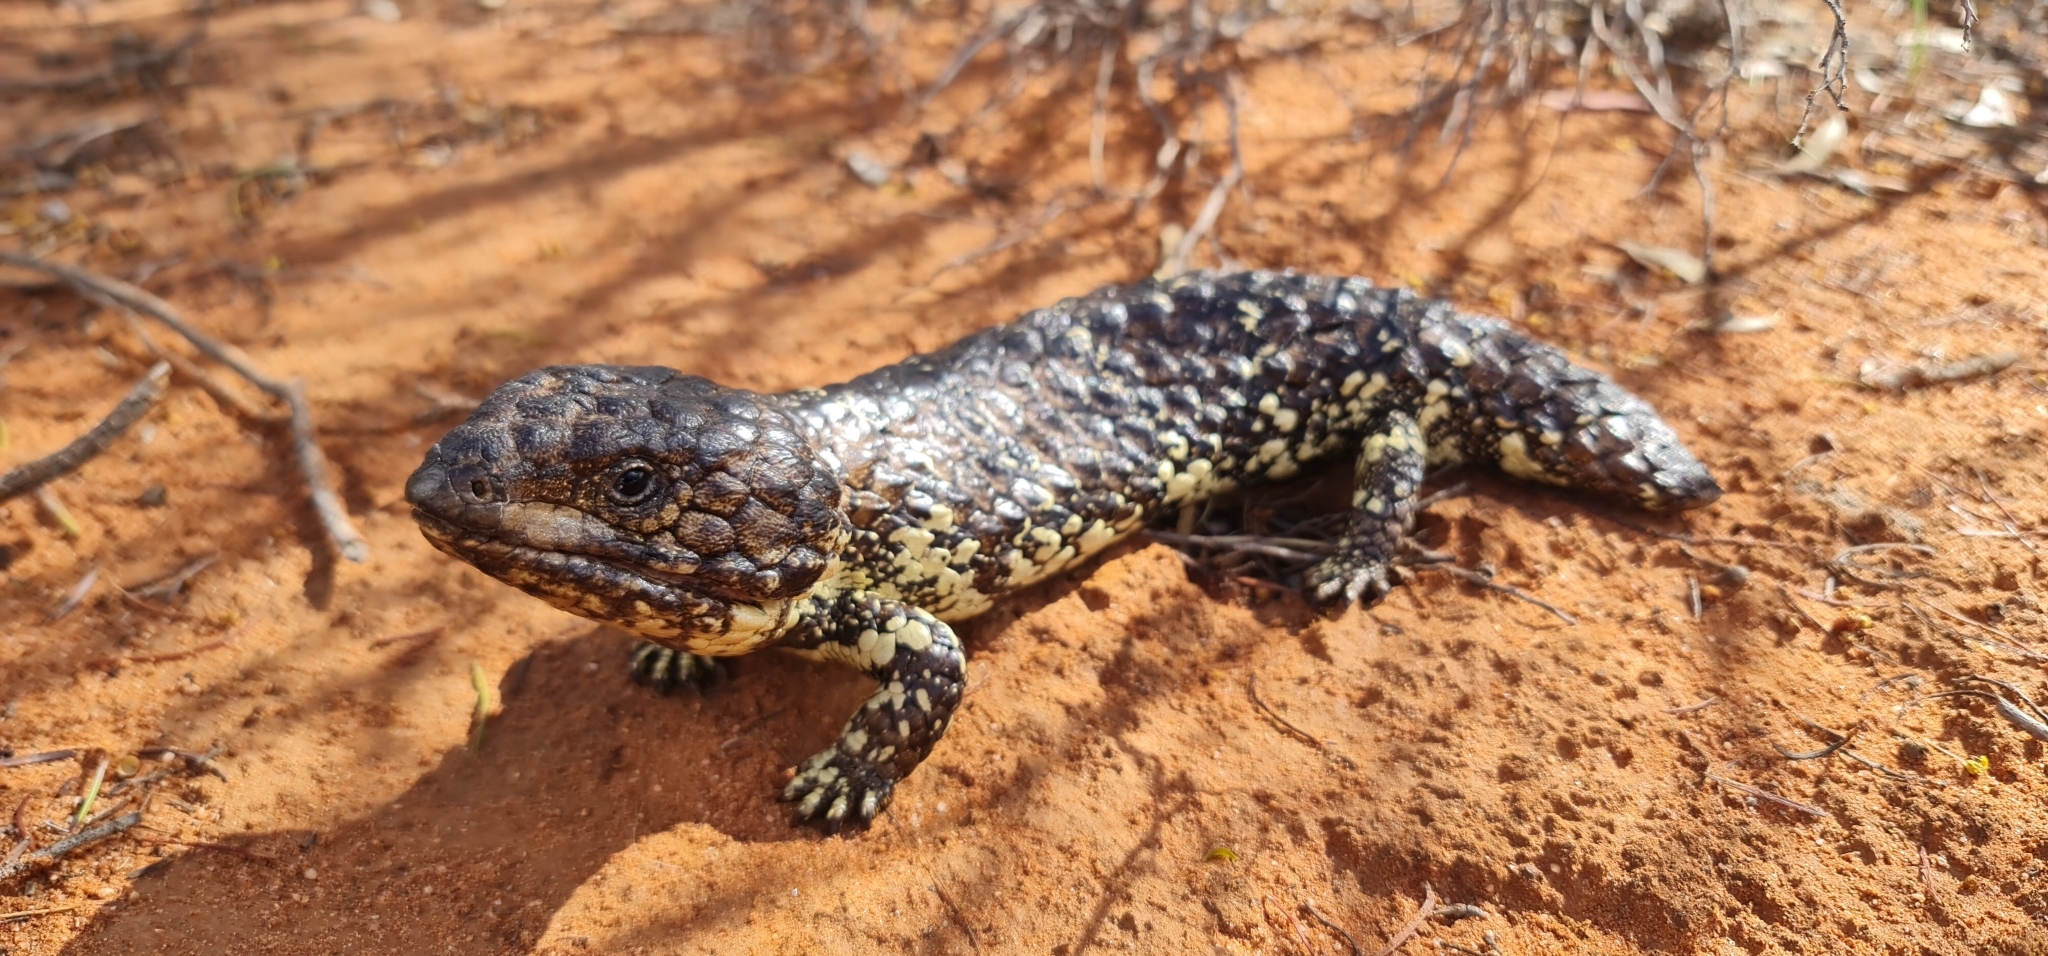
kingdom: Animalia
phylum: Chordata
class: Squamata
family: Scincidae
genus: Tiliqua
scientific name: Tiliqua rugosa
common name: Pinecone lizard
